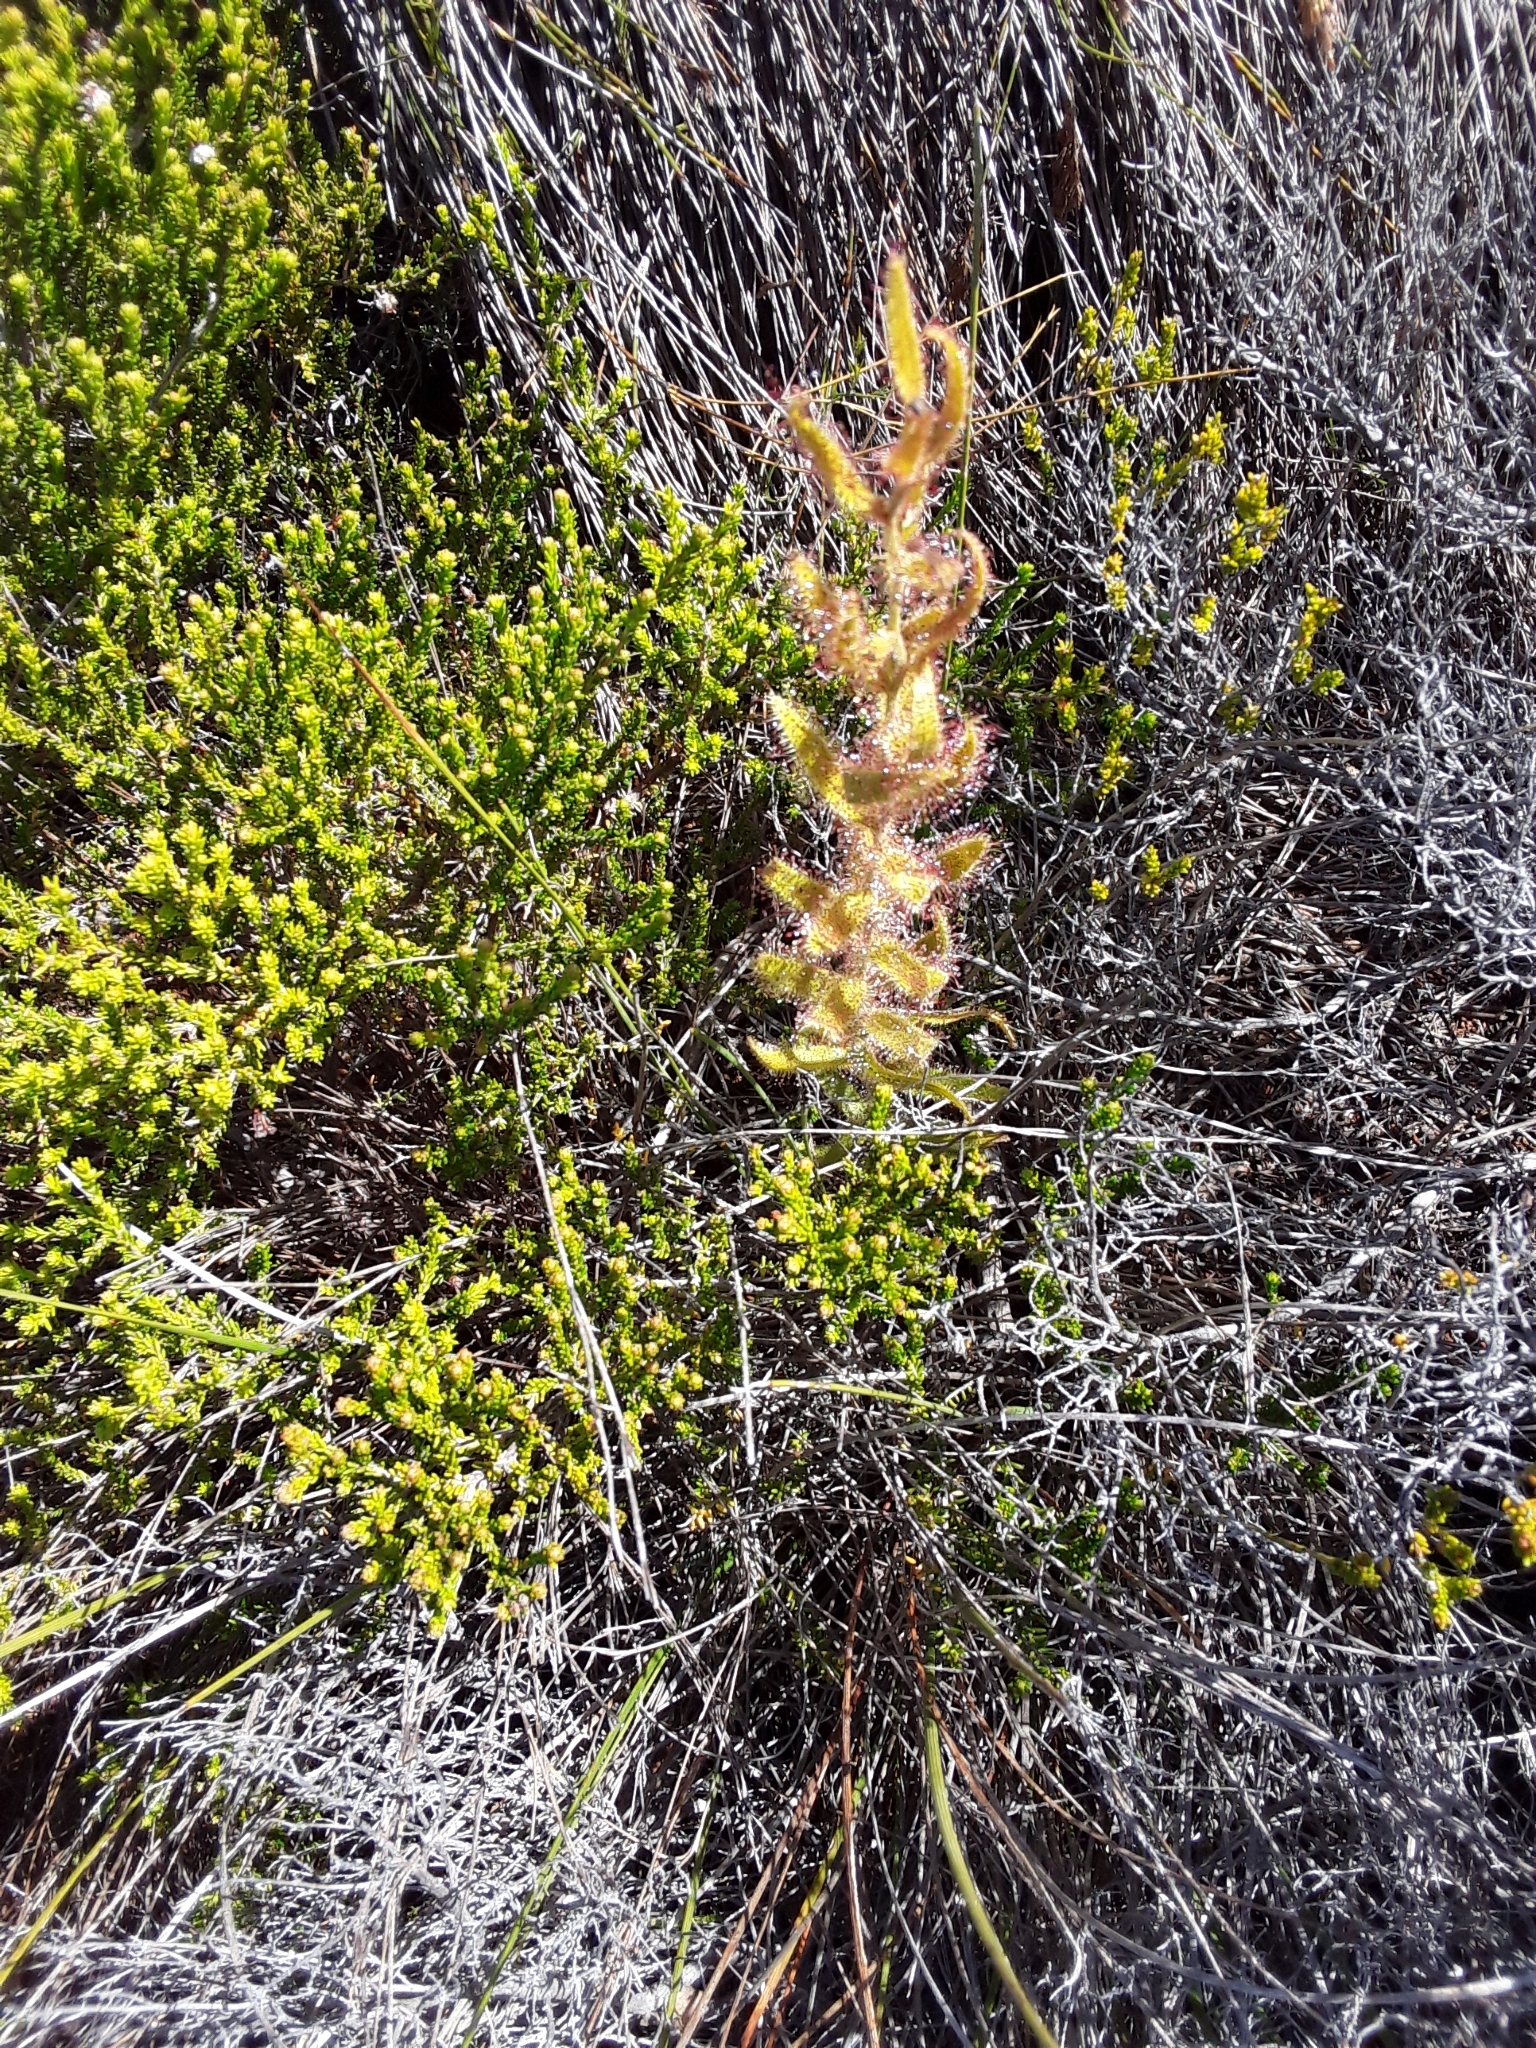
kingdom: Plantae
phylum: Tracheophyta
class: Magnoliopsida
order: Caryophyllales
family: Droseraceae
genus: Drosera
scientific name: Drosera cistiflora
